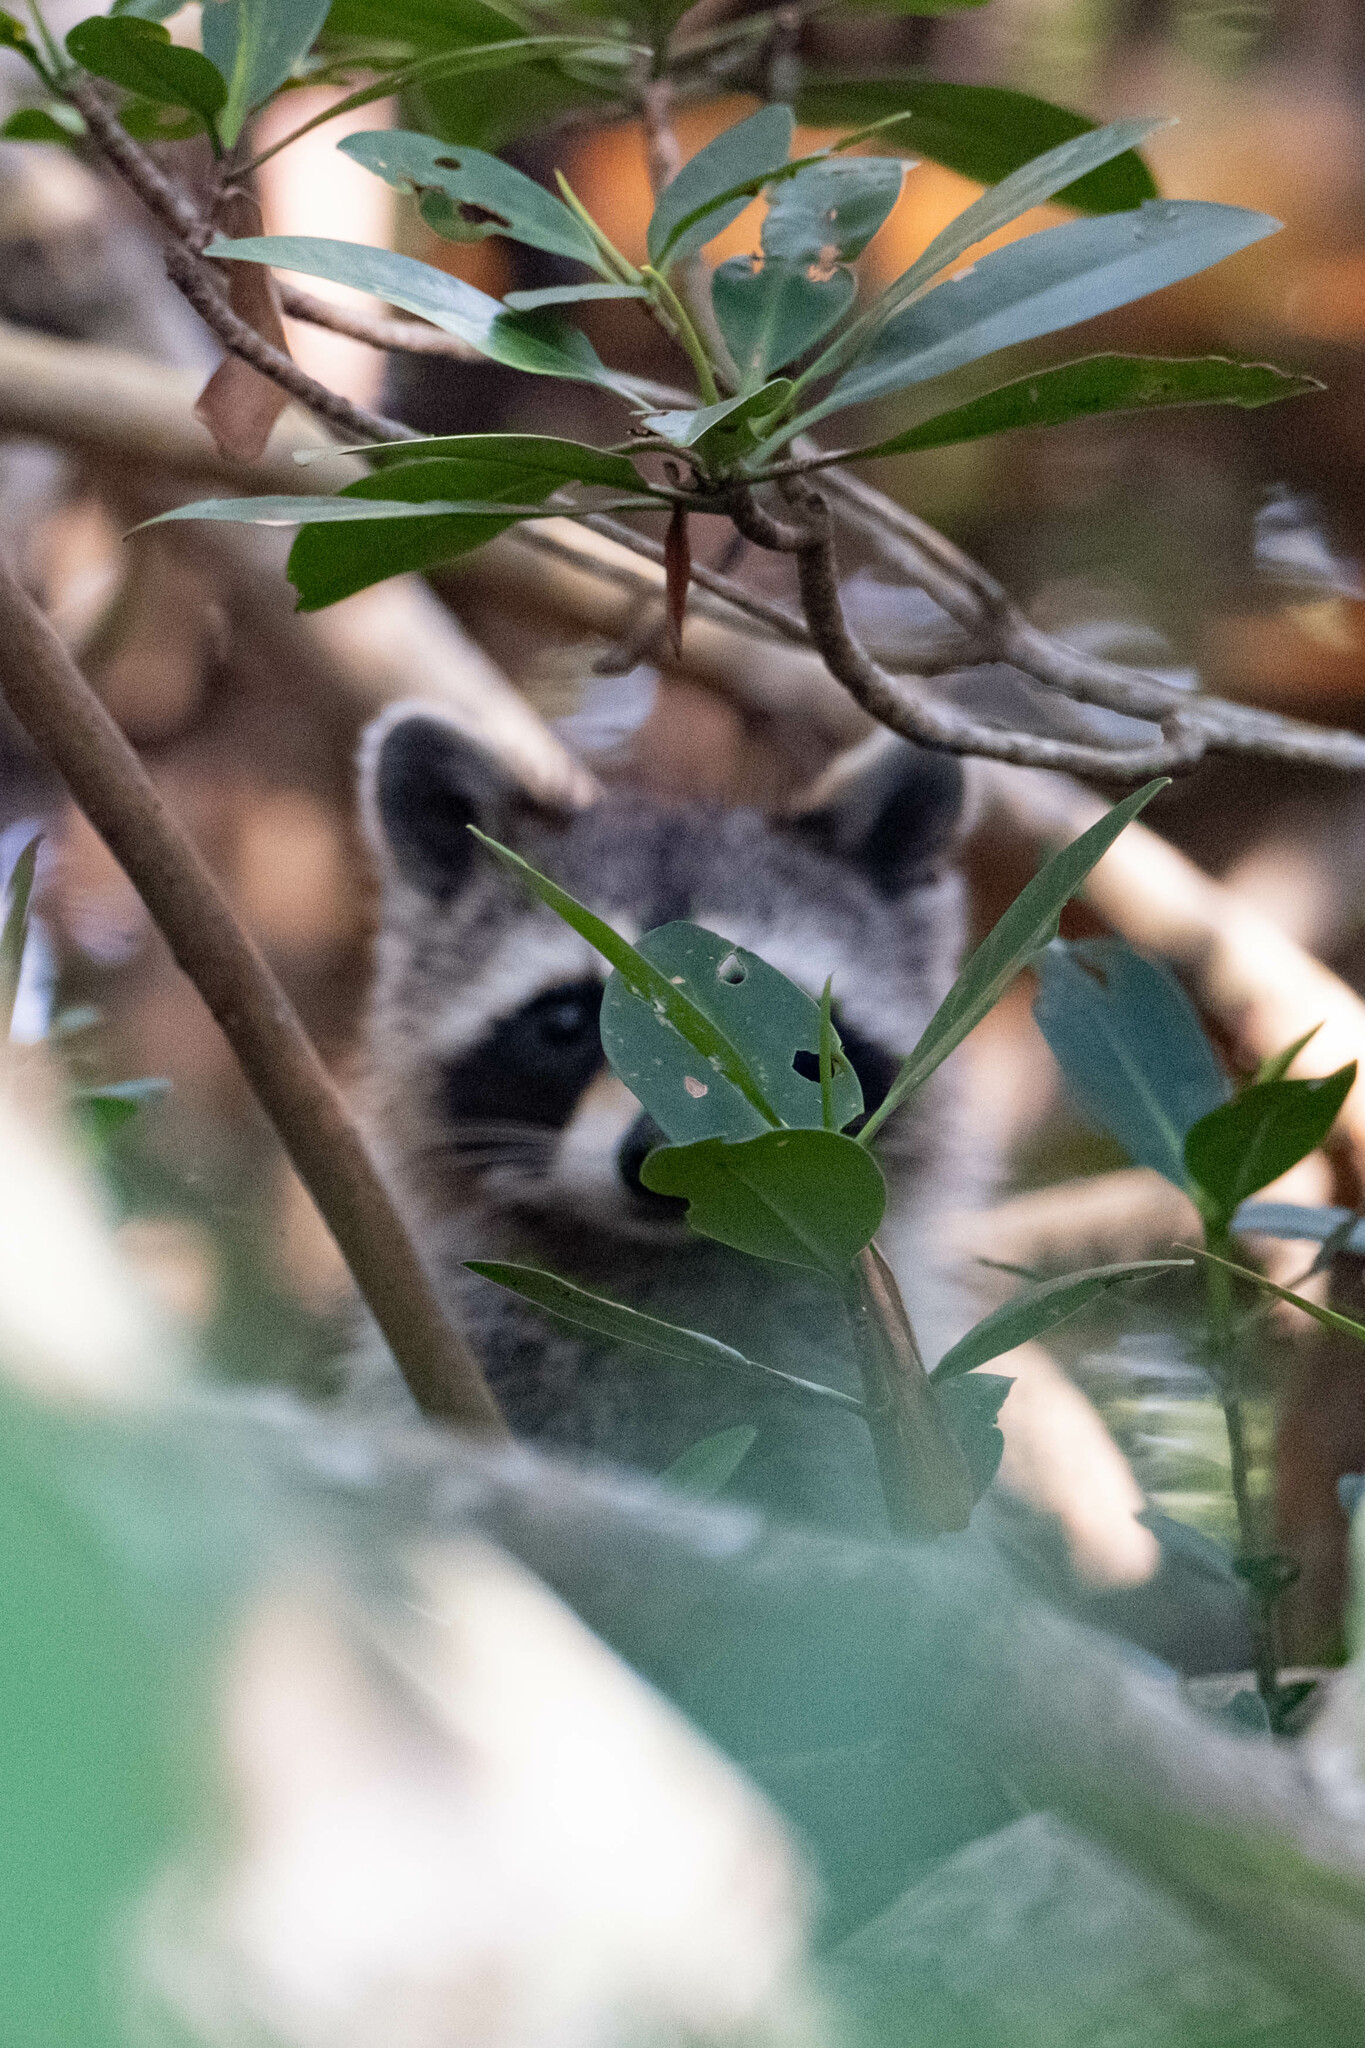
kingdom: Animalia
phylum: Chordata
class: Mammalia
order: Carnivora
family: Procyonidae
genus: Procyon
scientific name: Procyon lotor
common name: Raccoon
